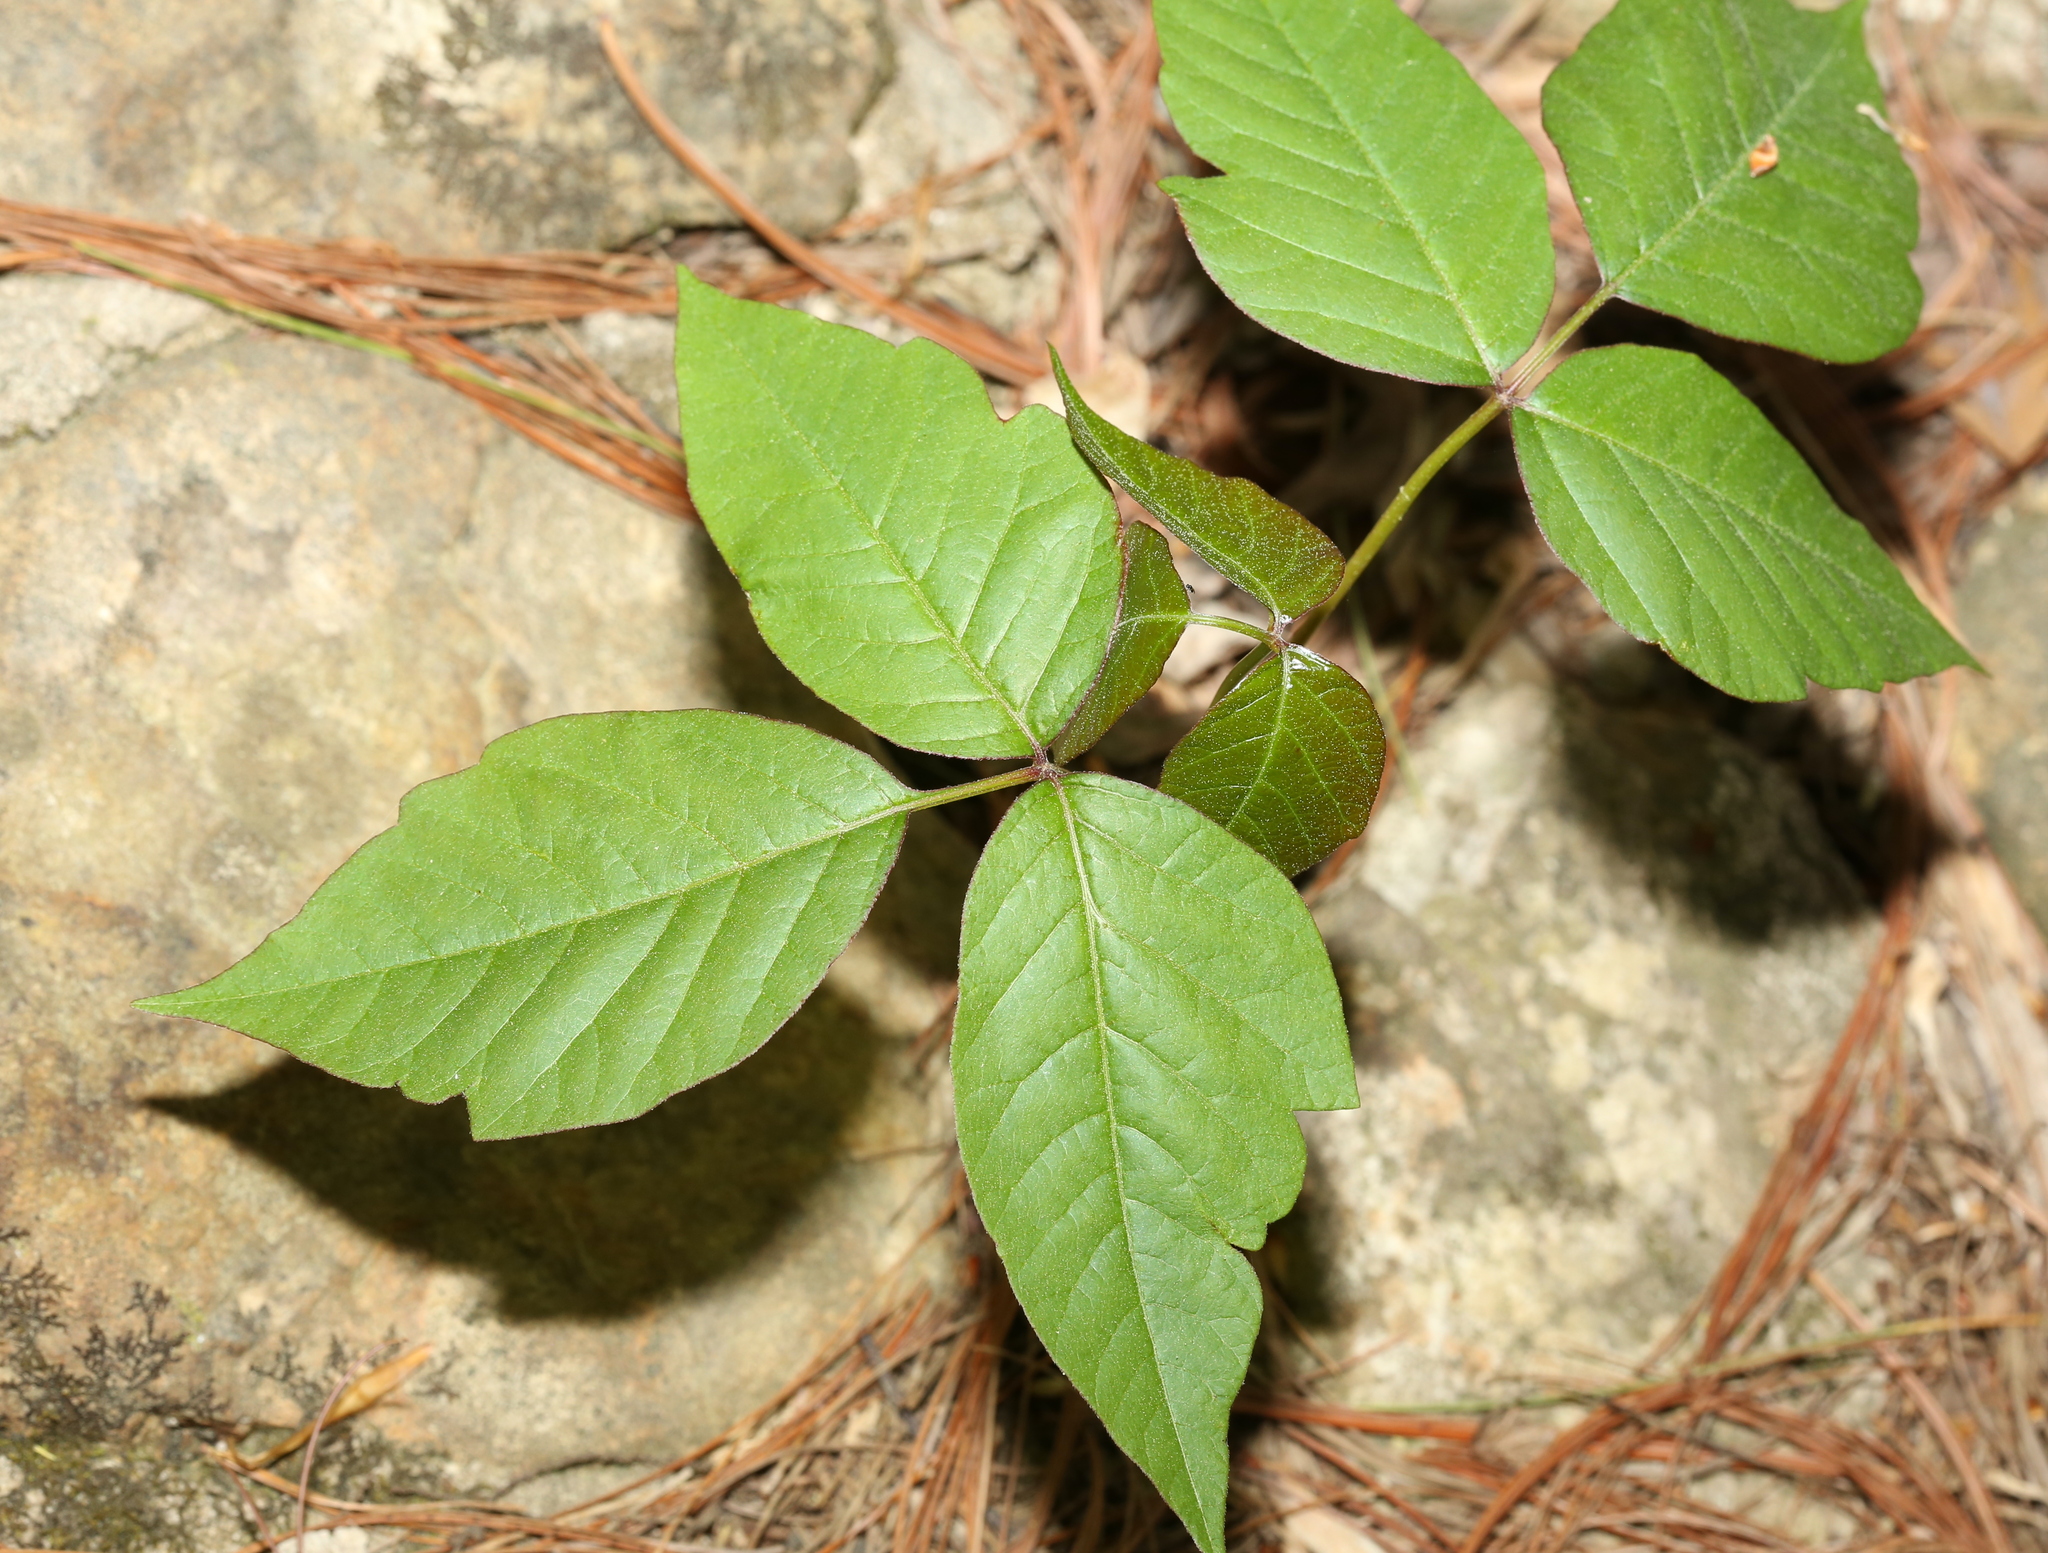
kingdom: Plantae
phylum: Tracheophyta
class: Magnoliopsida
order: Sapindales
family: Anacardiaceae
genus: Toxicodendron
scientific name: Toxicodendron radicans
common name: Poison ivy
